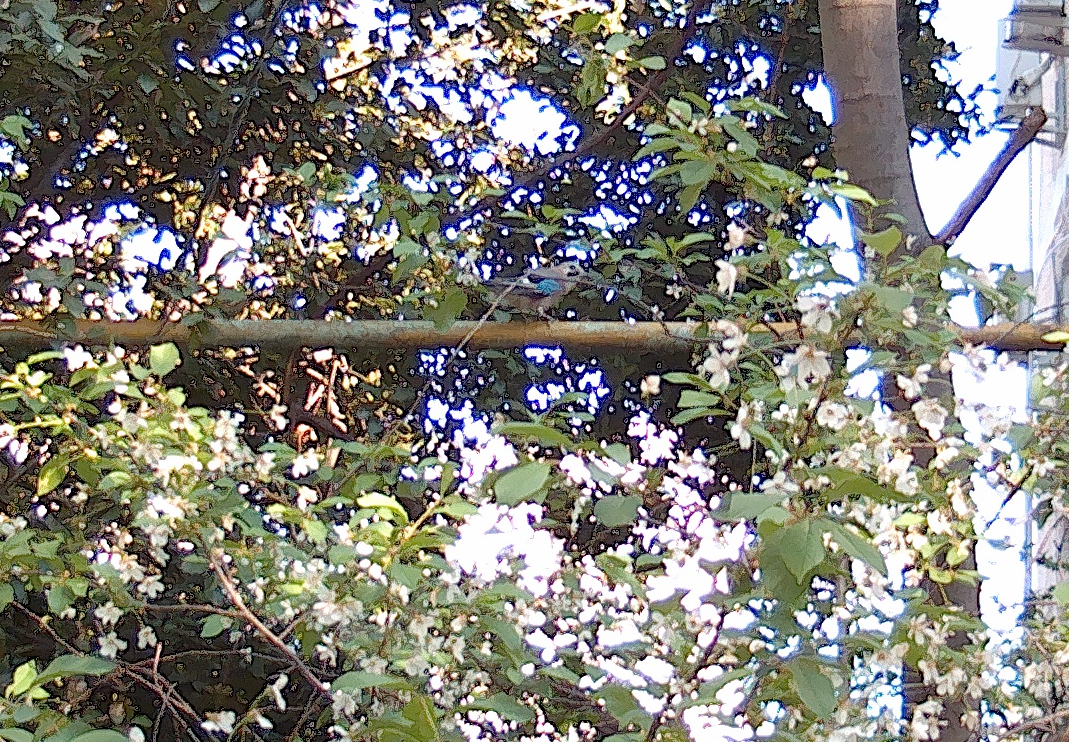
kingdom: Animalia
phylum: Chordata
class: Aves
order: Passeriformes
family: Corvidae
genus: Garrulus
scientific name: Garrulus glandarius
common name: Eurasian jay
